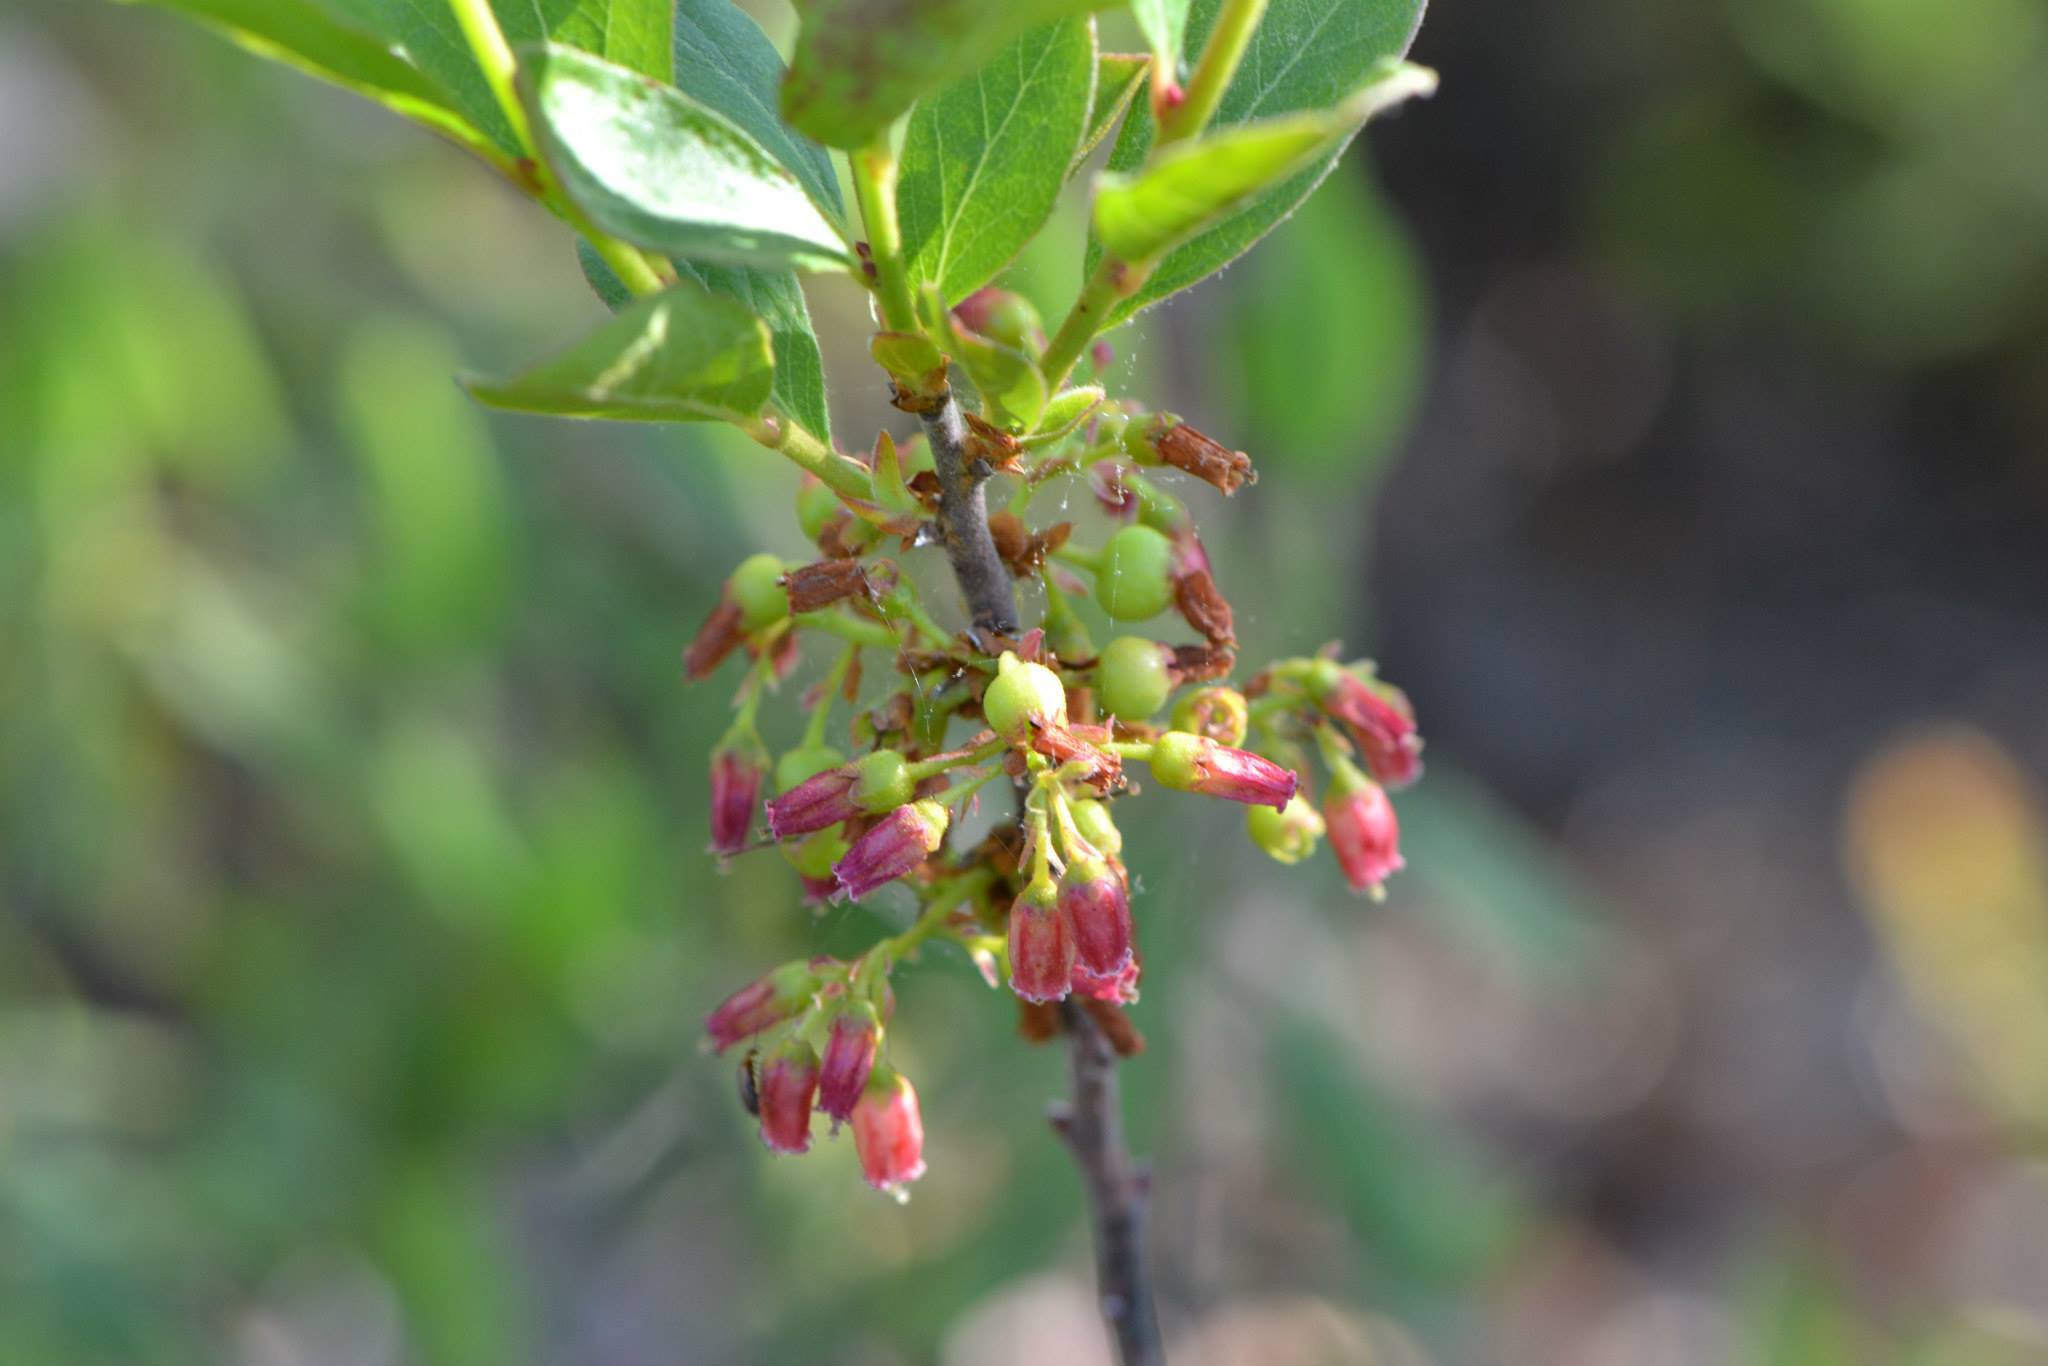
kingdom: Plantae
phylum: Tracheophyta
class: Magnoliopsida
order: Ericales
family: Ericaceae
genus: Gaylussacia
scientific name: Gaylussacia baccata
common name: Black huckleberry
